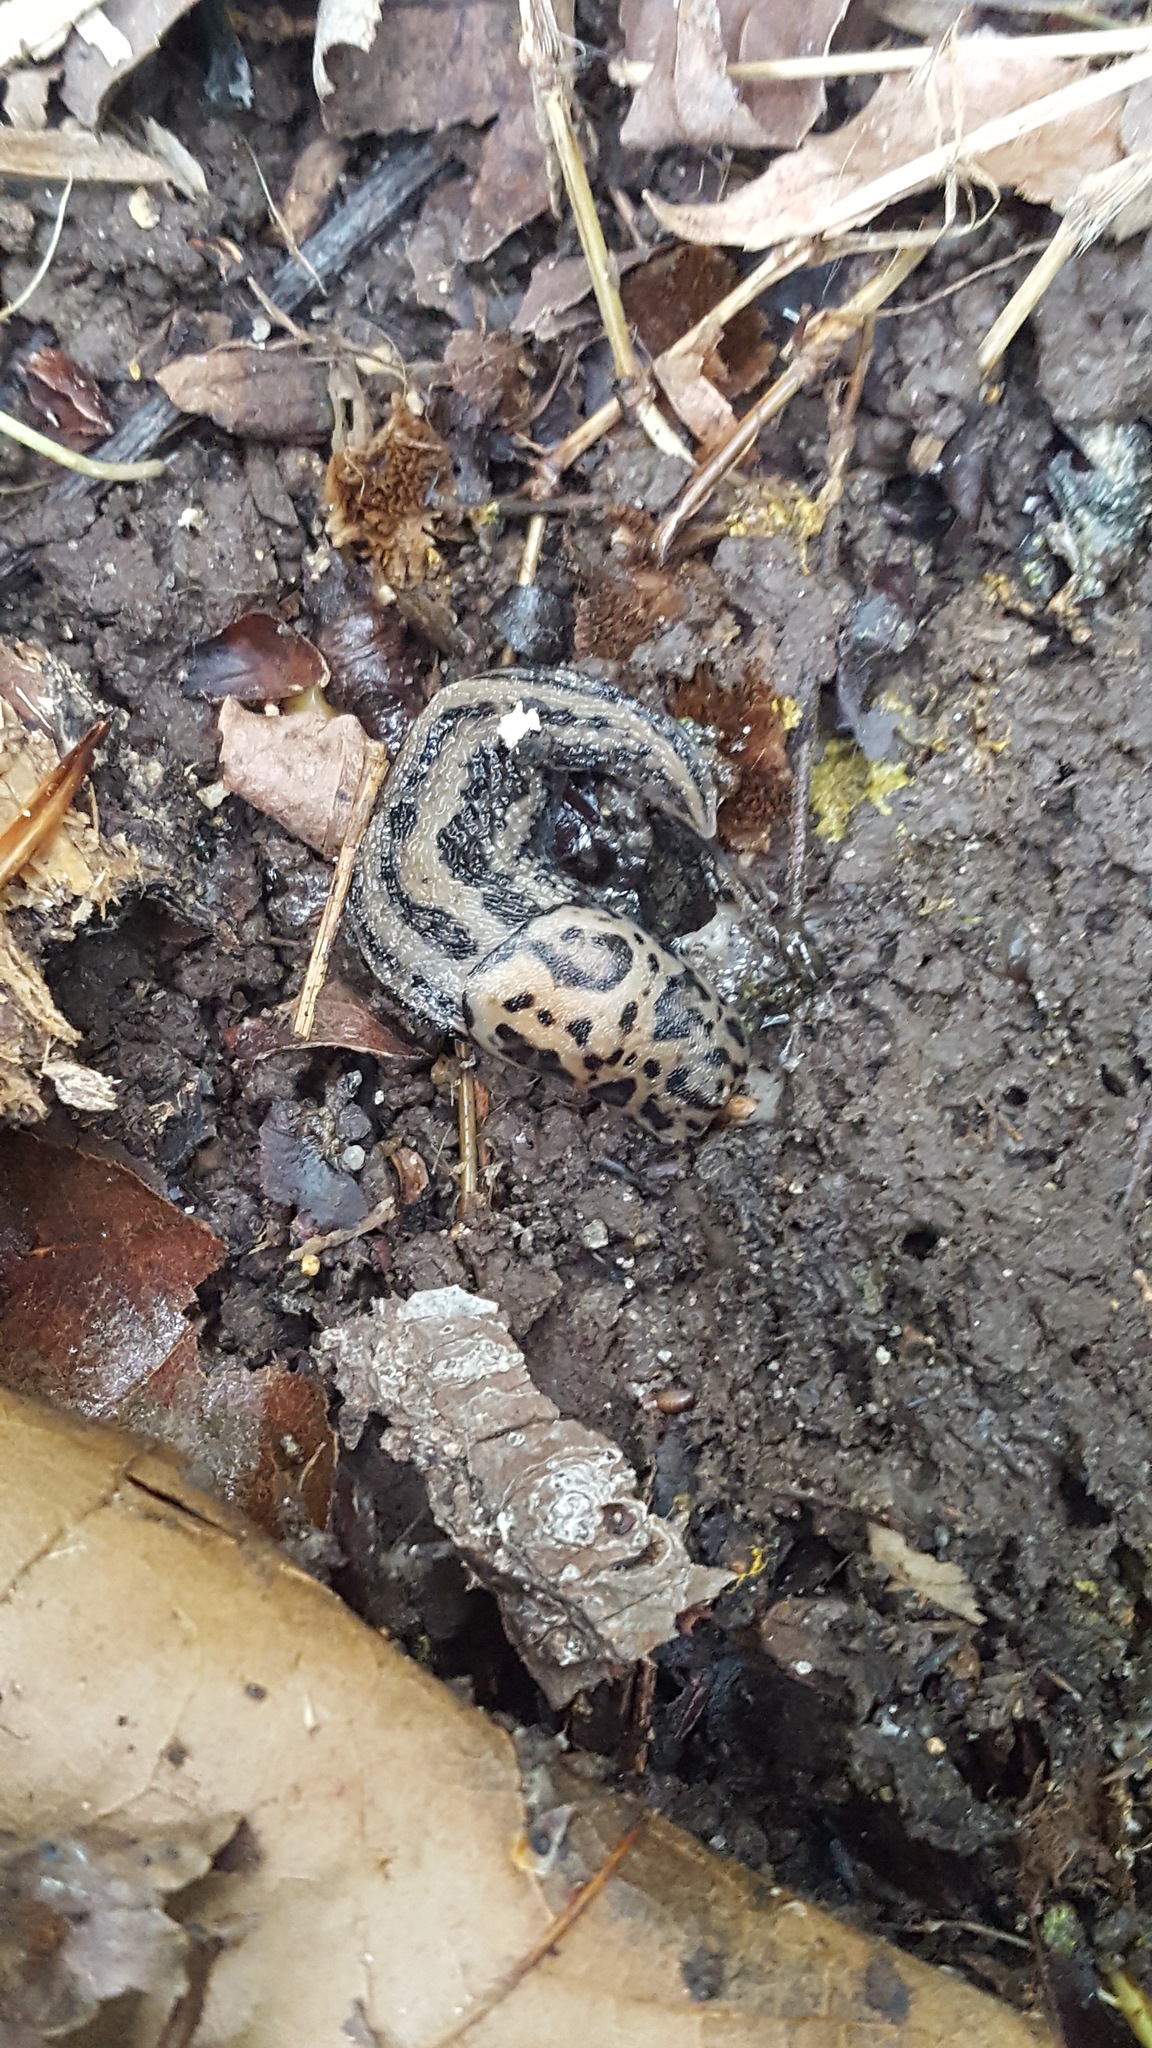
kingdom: Animalia
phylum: Mollusca
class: Gastropoda
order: Stylommatophora
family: Limacidae
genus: Limax
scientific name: Limax maximus
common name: Great grey slug
